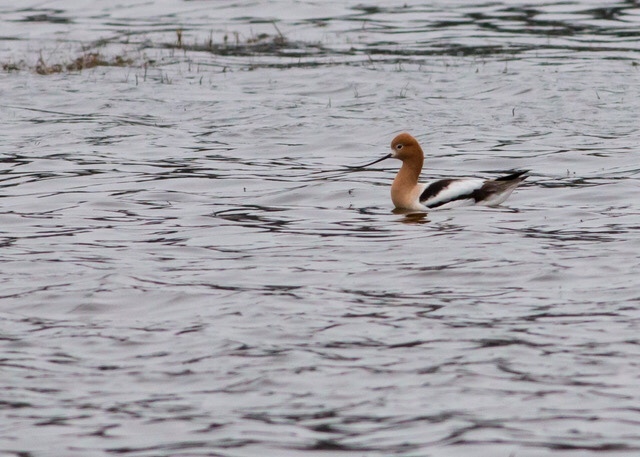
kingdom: Animalia
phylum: Chordata
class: Aves
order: Charadriiformes
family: Recurvirostridae
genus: Recurvirostra
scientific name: Recurvirostra americana
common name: American avocet
